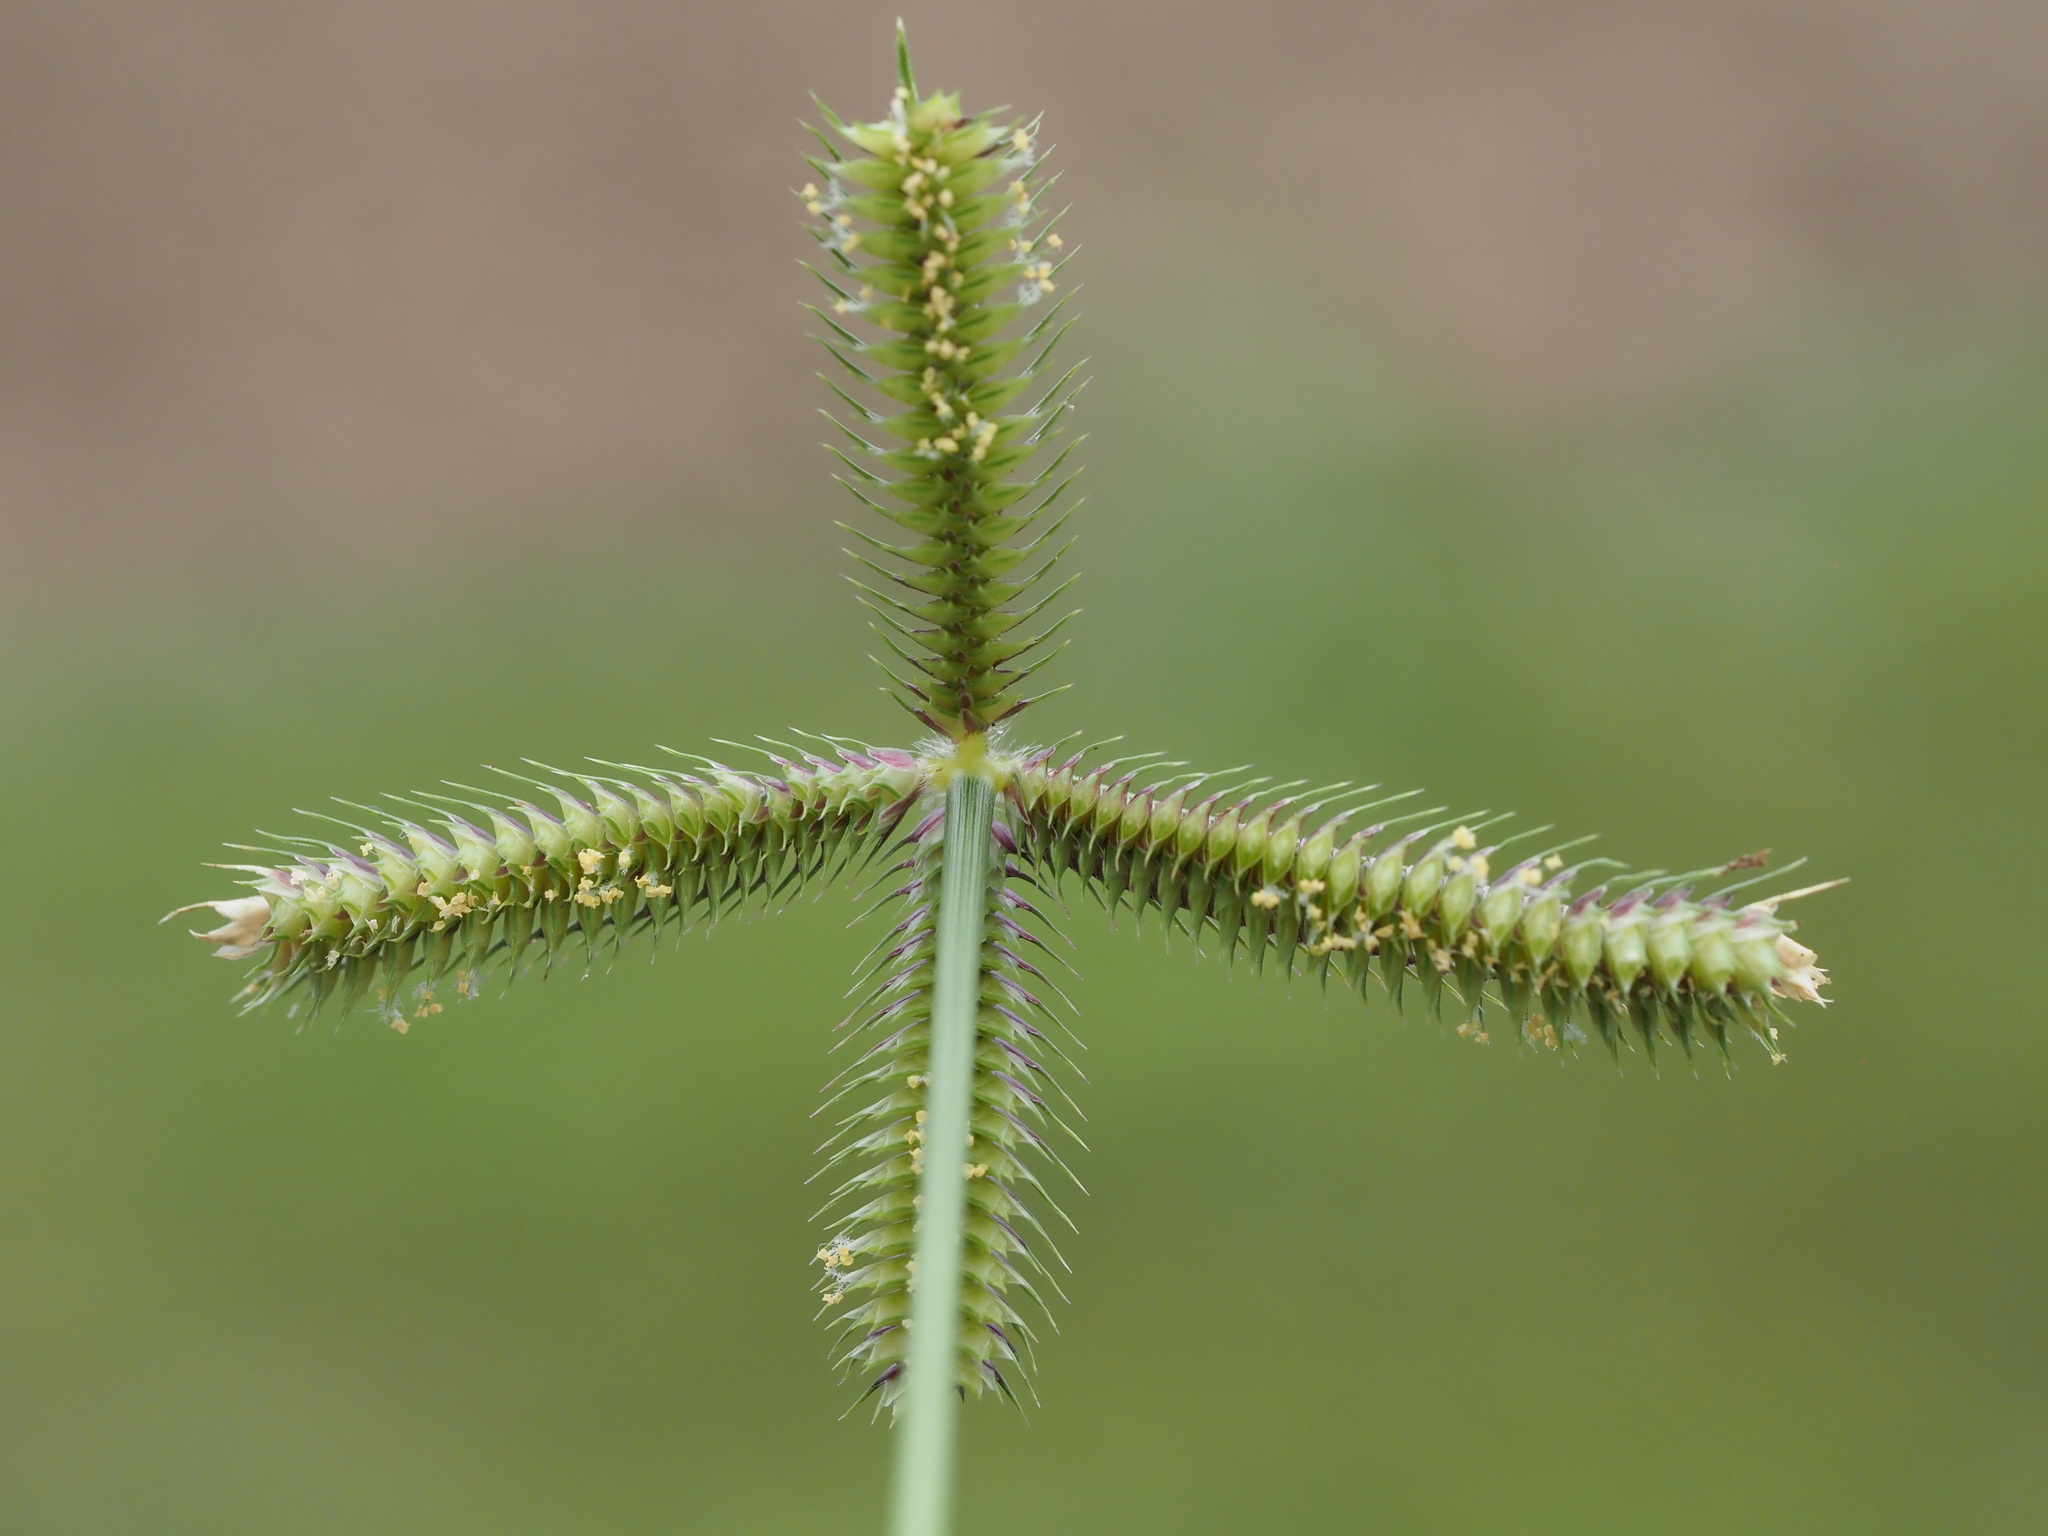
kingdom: Plantae
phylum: Tracheophyta
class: Liliopsida
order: Poales
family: Poaceae
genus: Dactyloctenium
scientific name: Dactyloctenium aegyptium
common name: Egyptian grass
